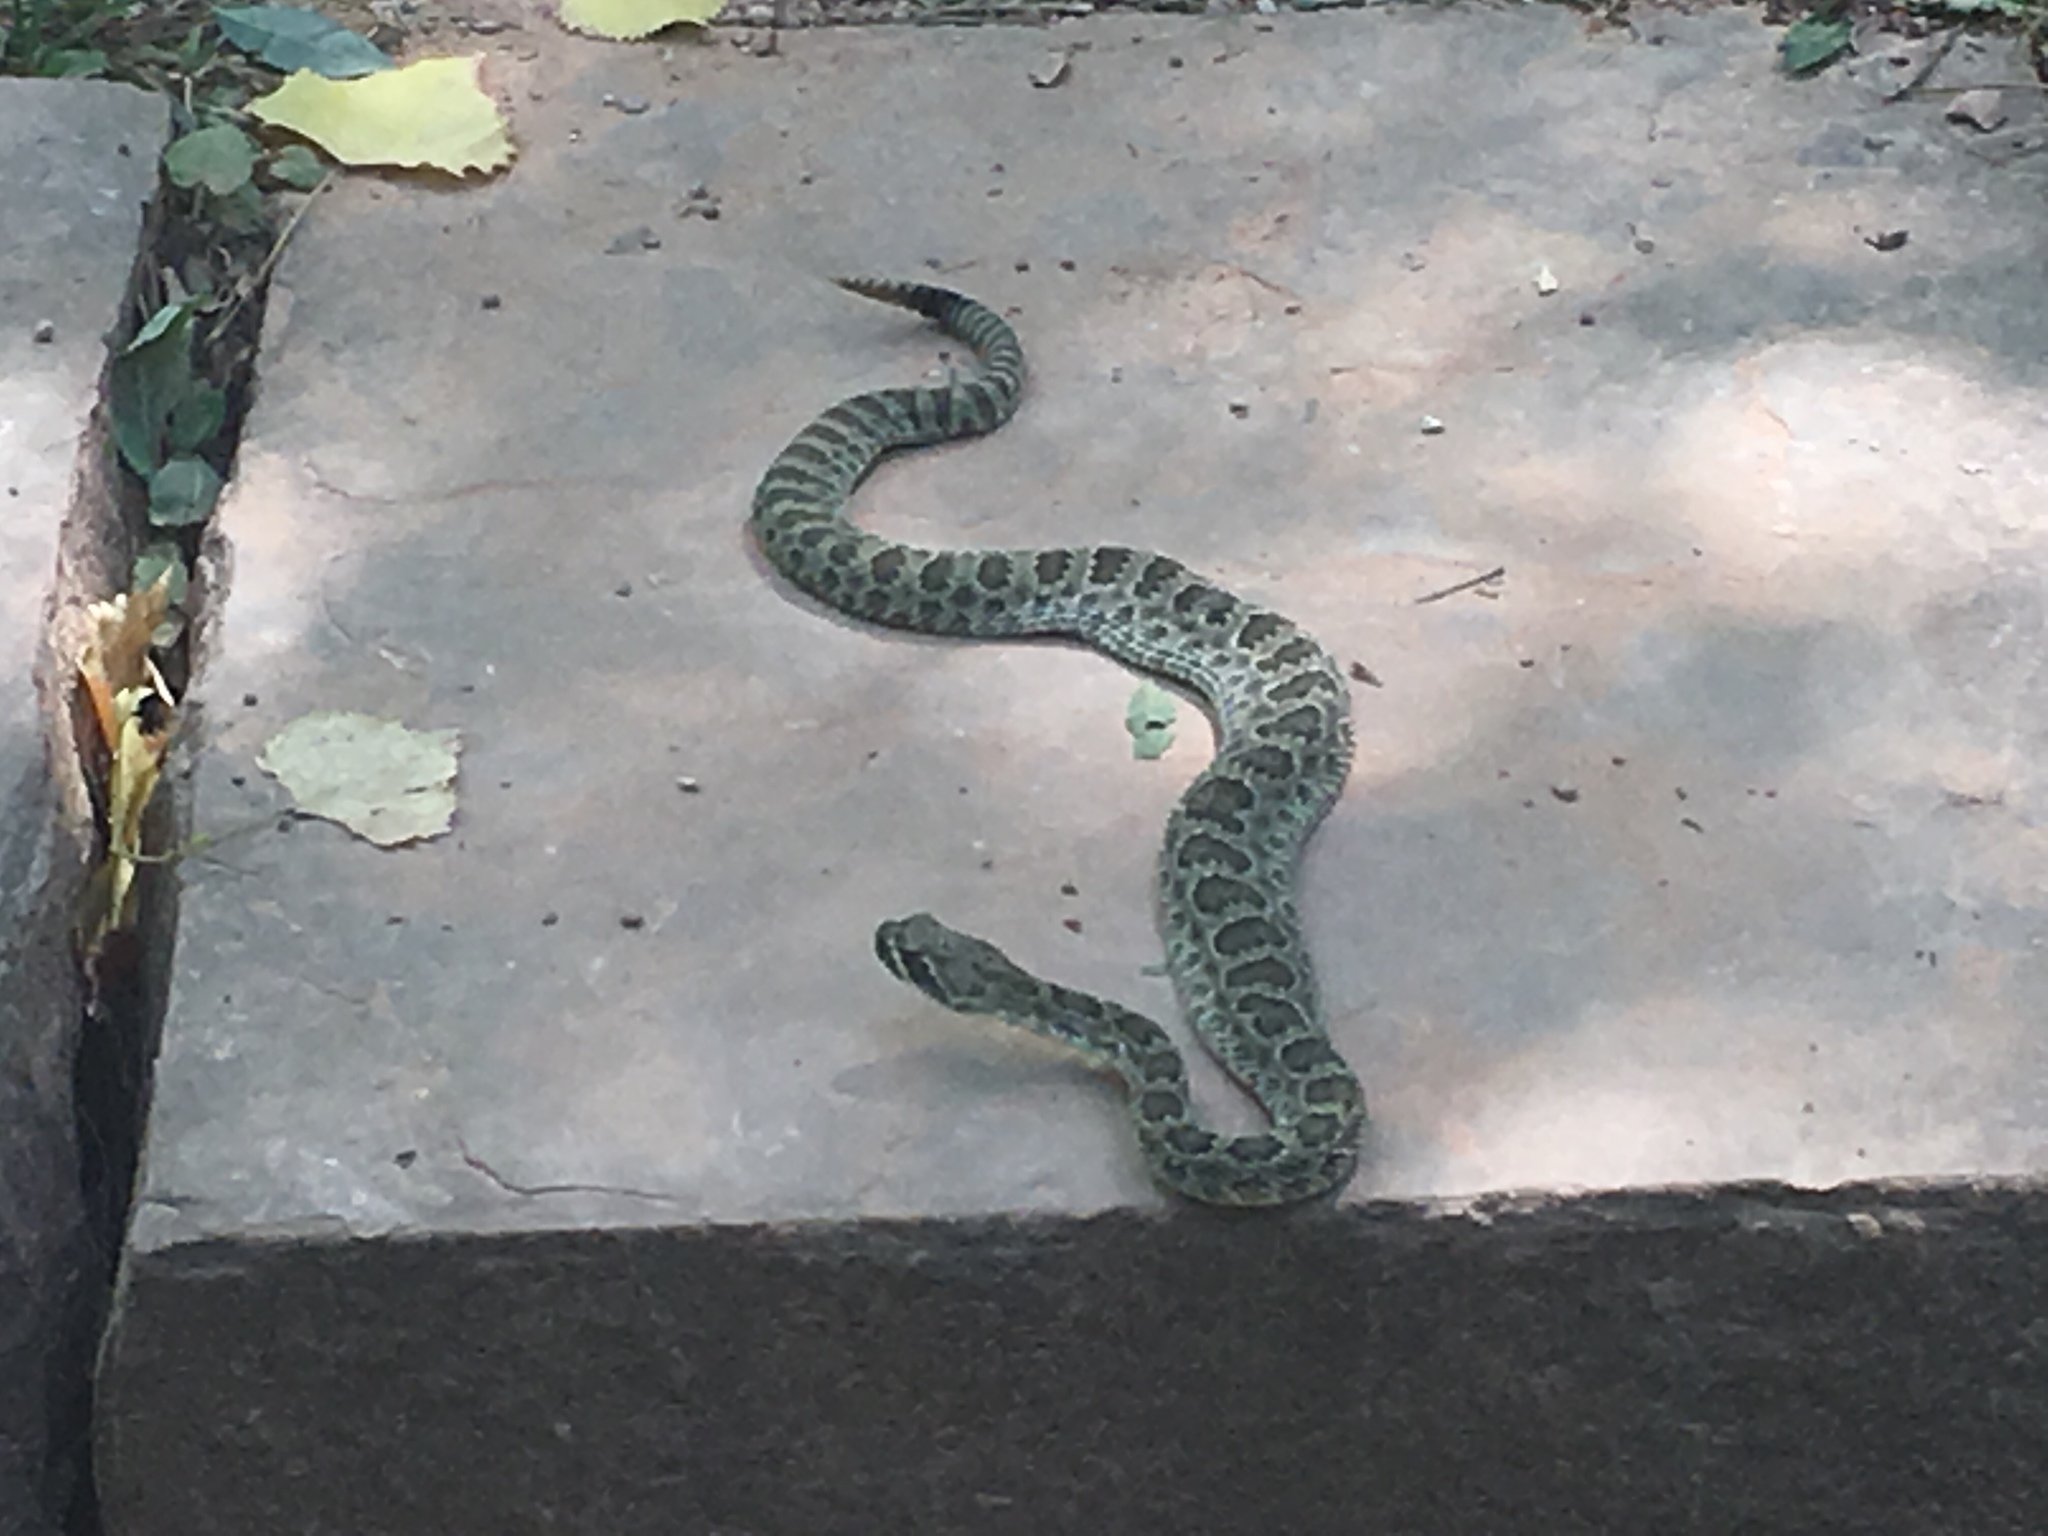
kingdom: Animalia
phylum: Chordata
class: Squamata
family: Viperidae
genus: Crotalus
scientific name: Crotalus viridis
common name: Prairie rattlesnake
